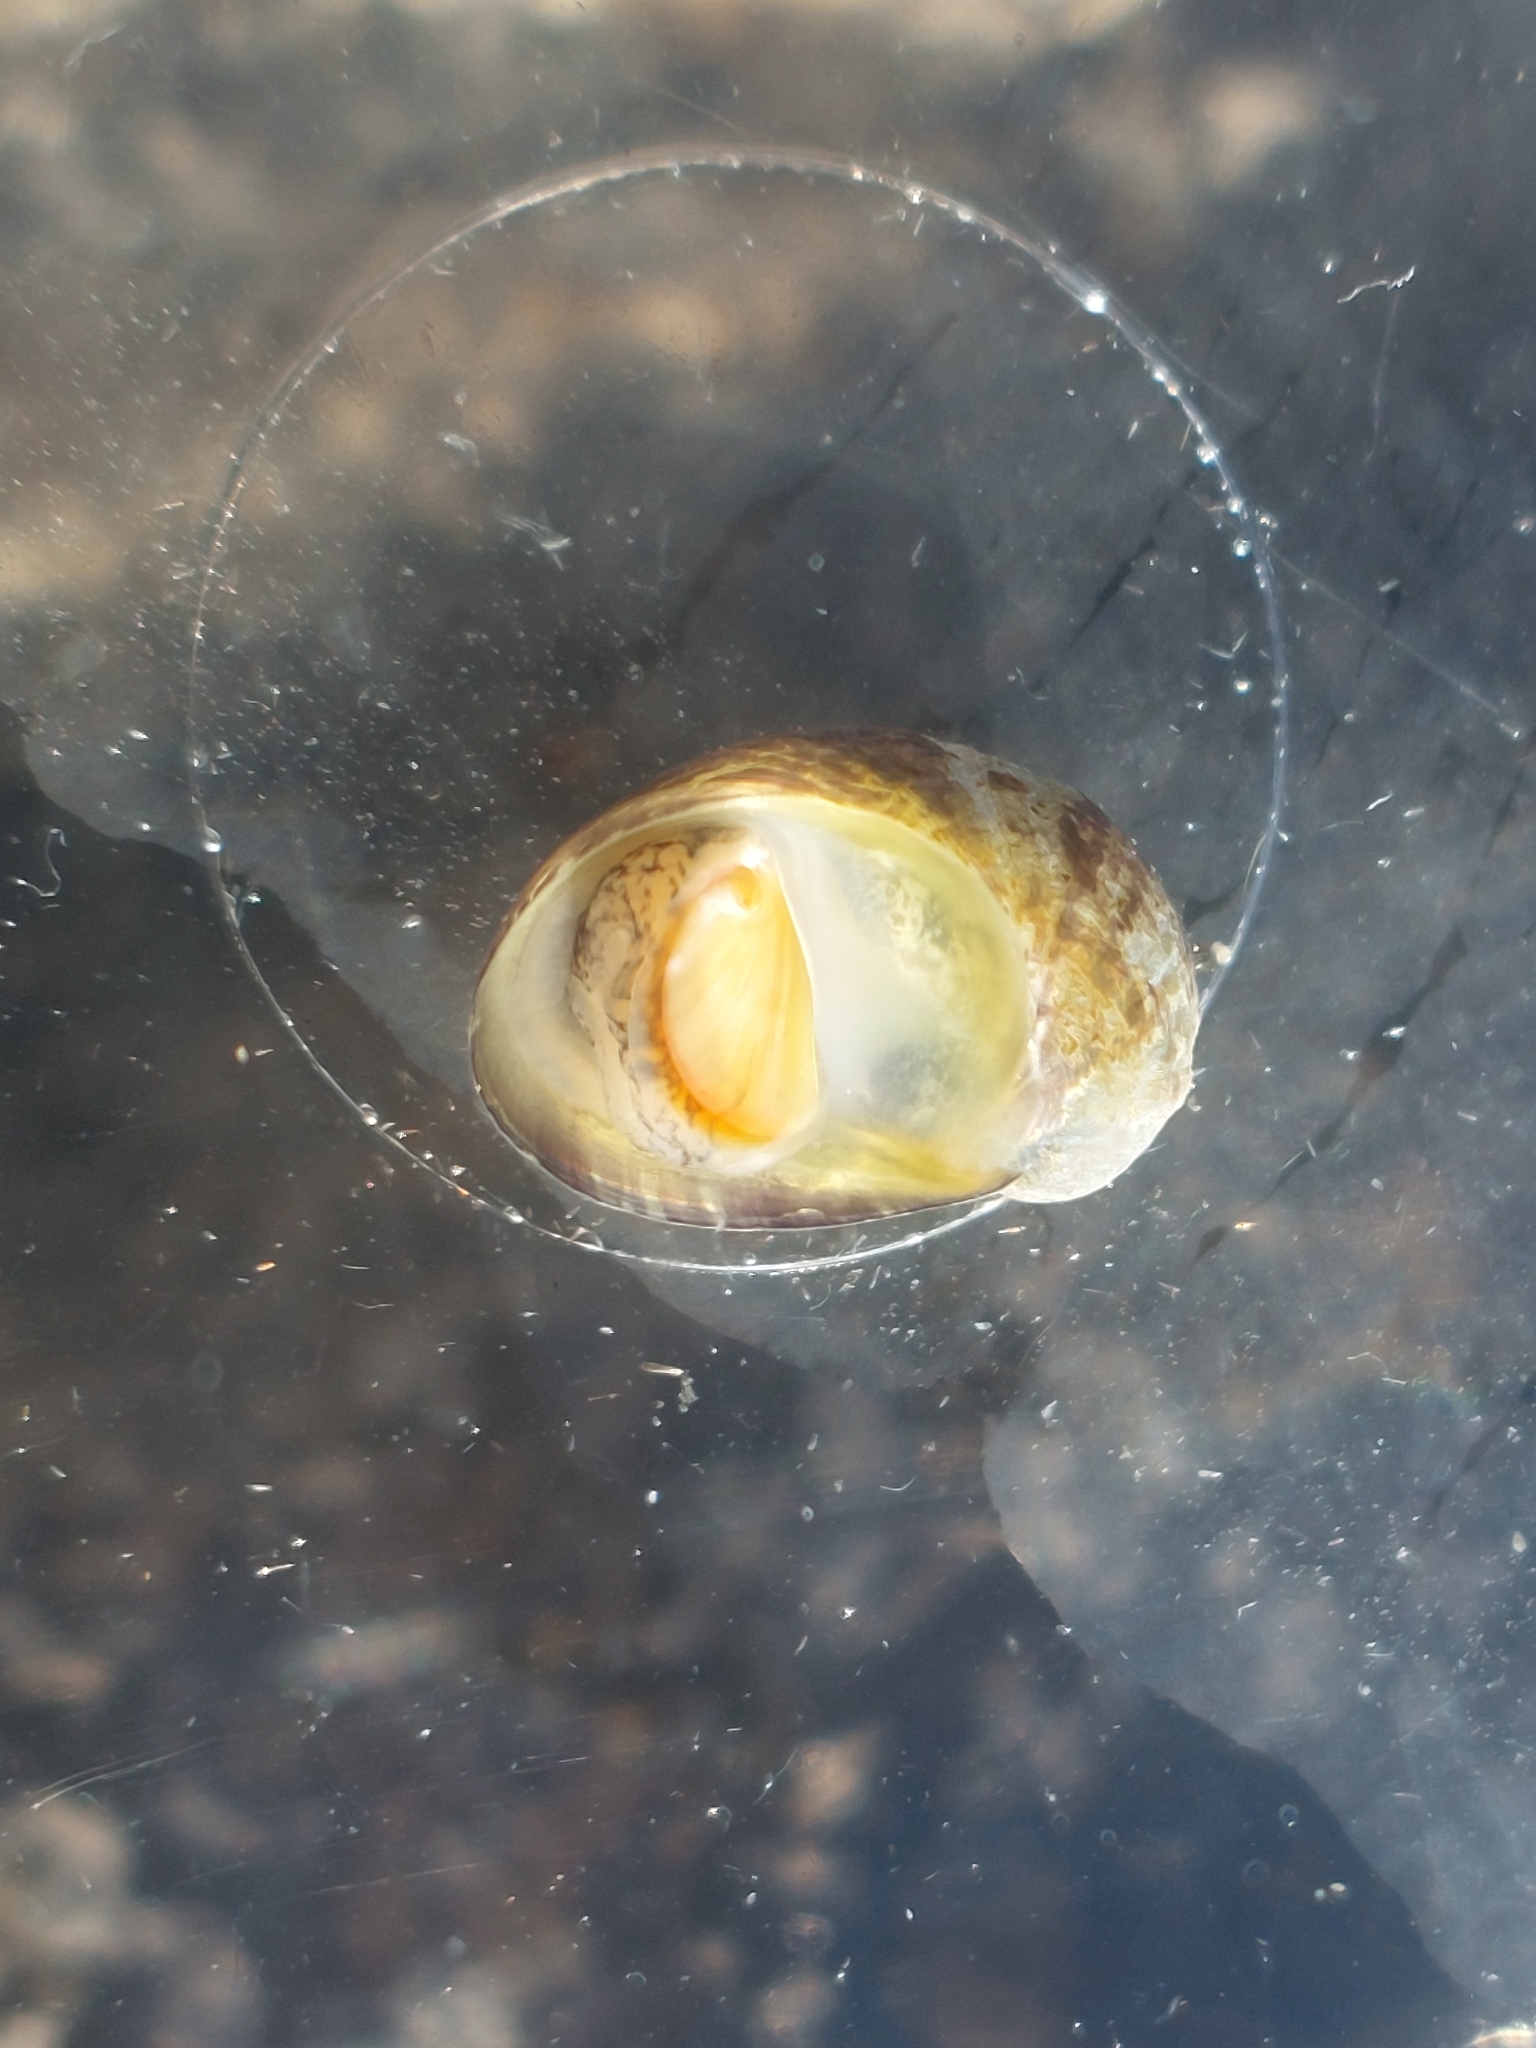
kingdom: Animalia
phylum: Mollusca
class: Gastropoda
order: Cycloneritida
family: Neritidae
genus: Theodoxus
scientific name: Theodoxus fluviatilis
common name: River nerite
